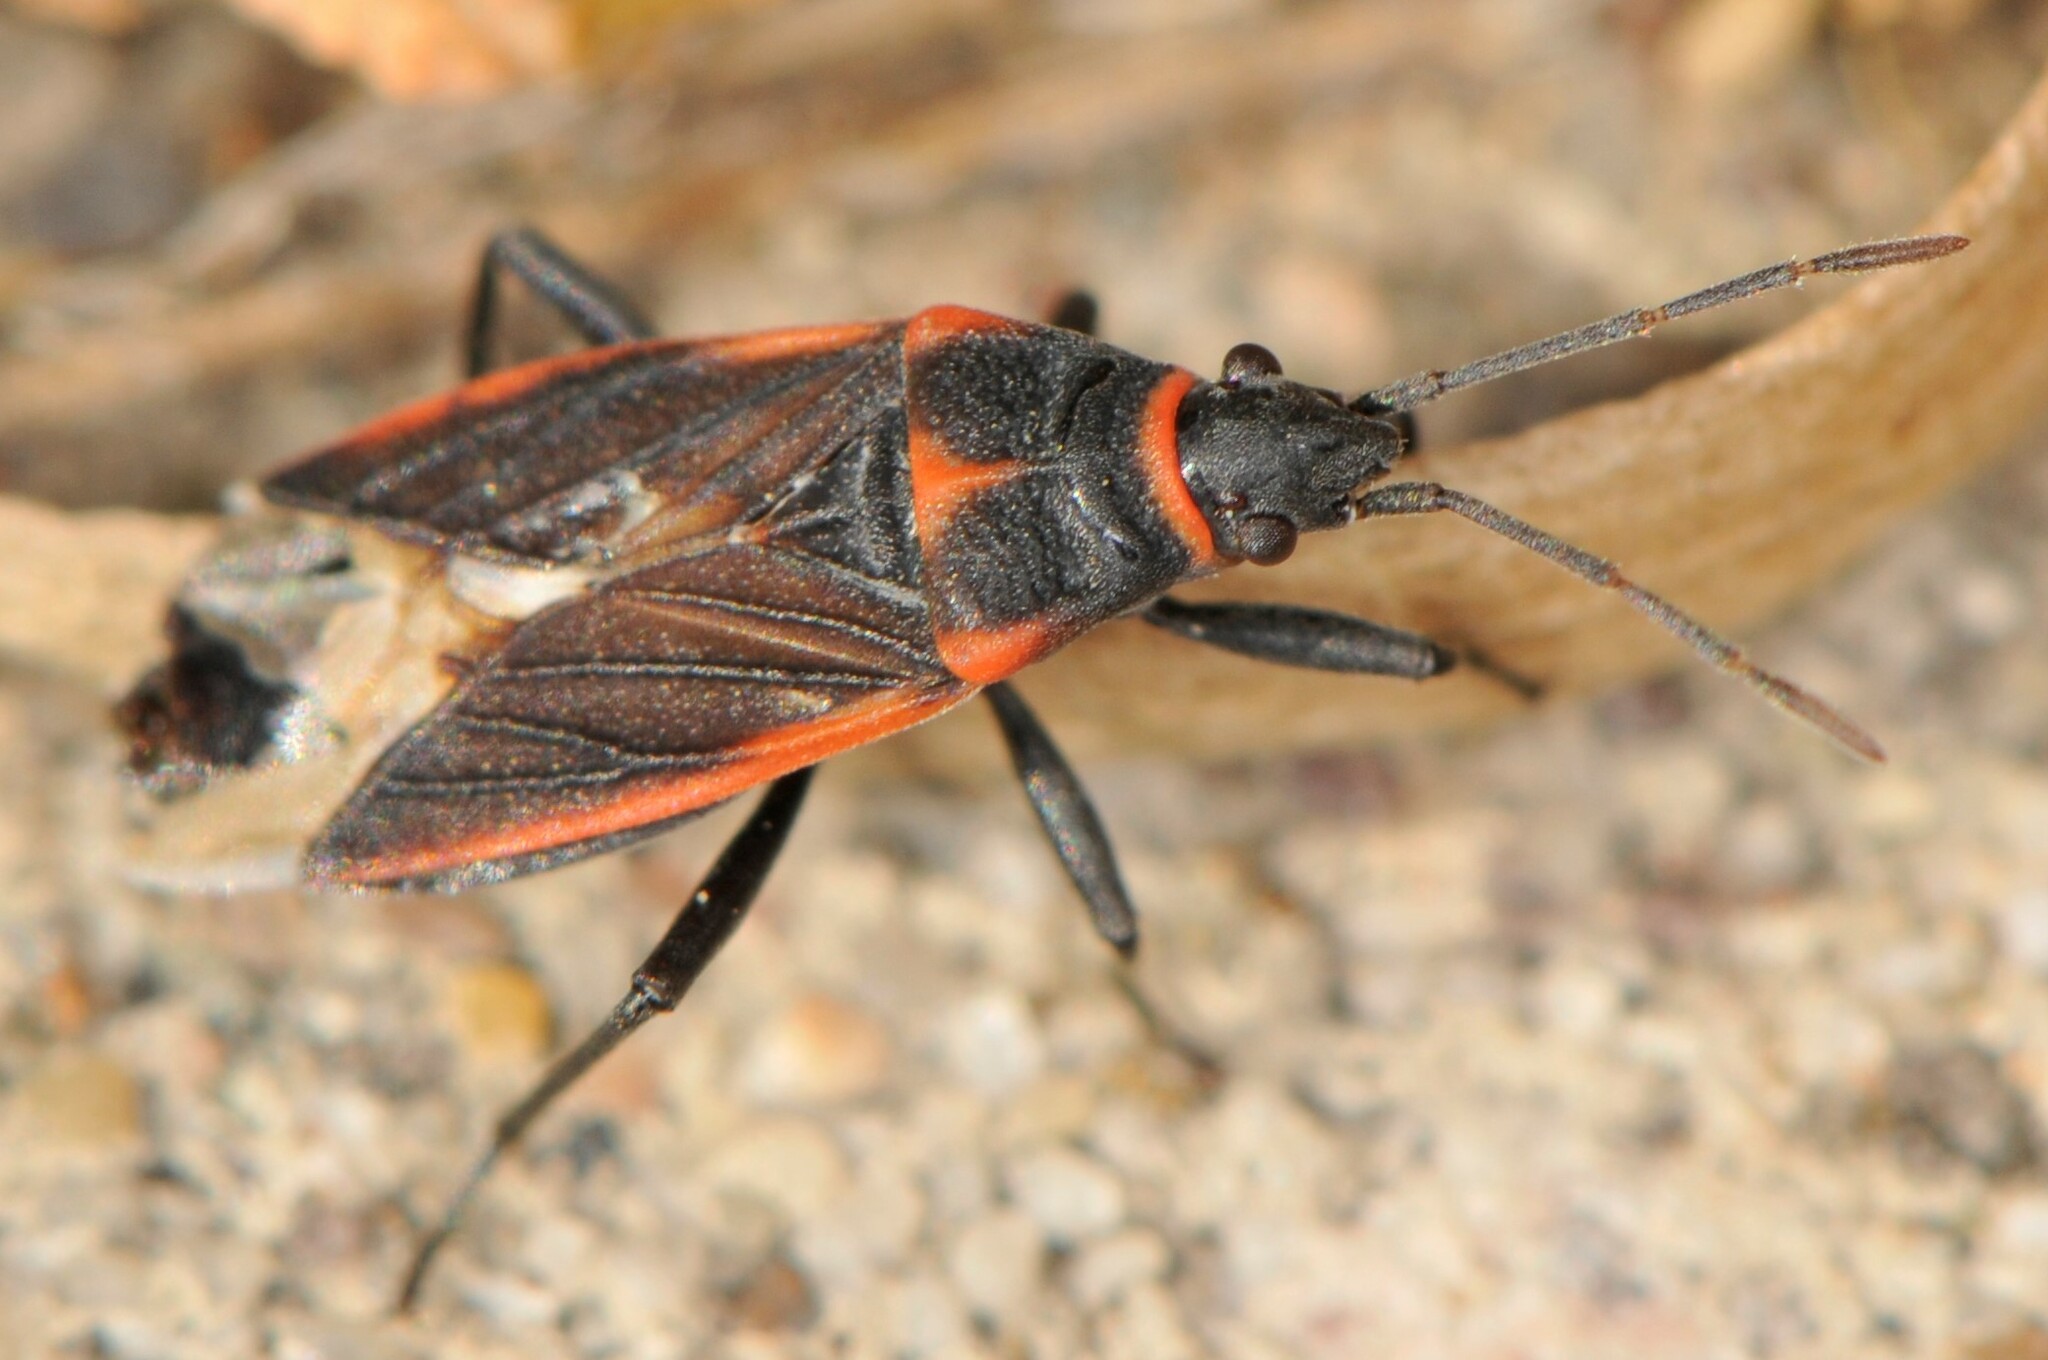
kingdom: Animalia
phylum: Arthropoda
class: Insecta
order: Hemiptera
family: Lygaeidae
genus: Melacoryphus
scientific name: Melacoryphus lateralis
